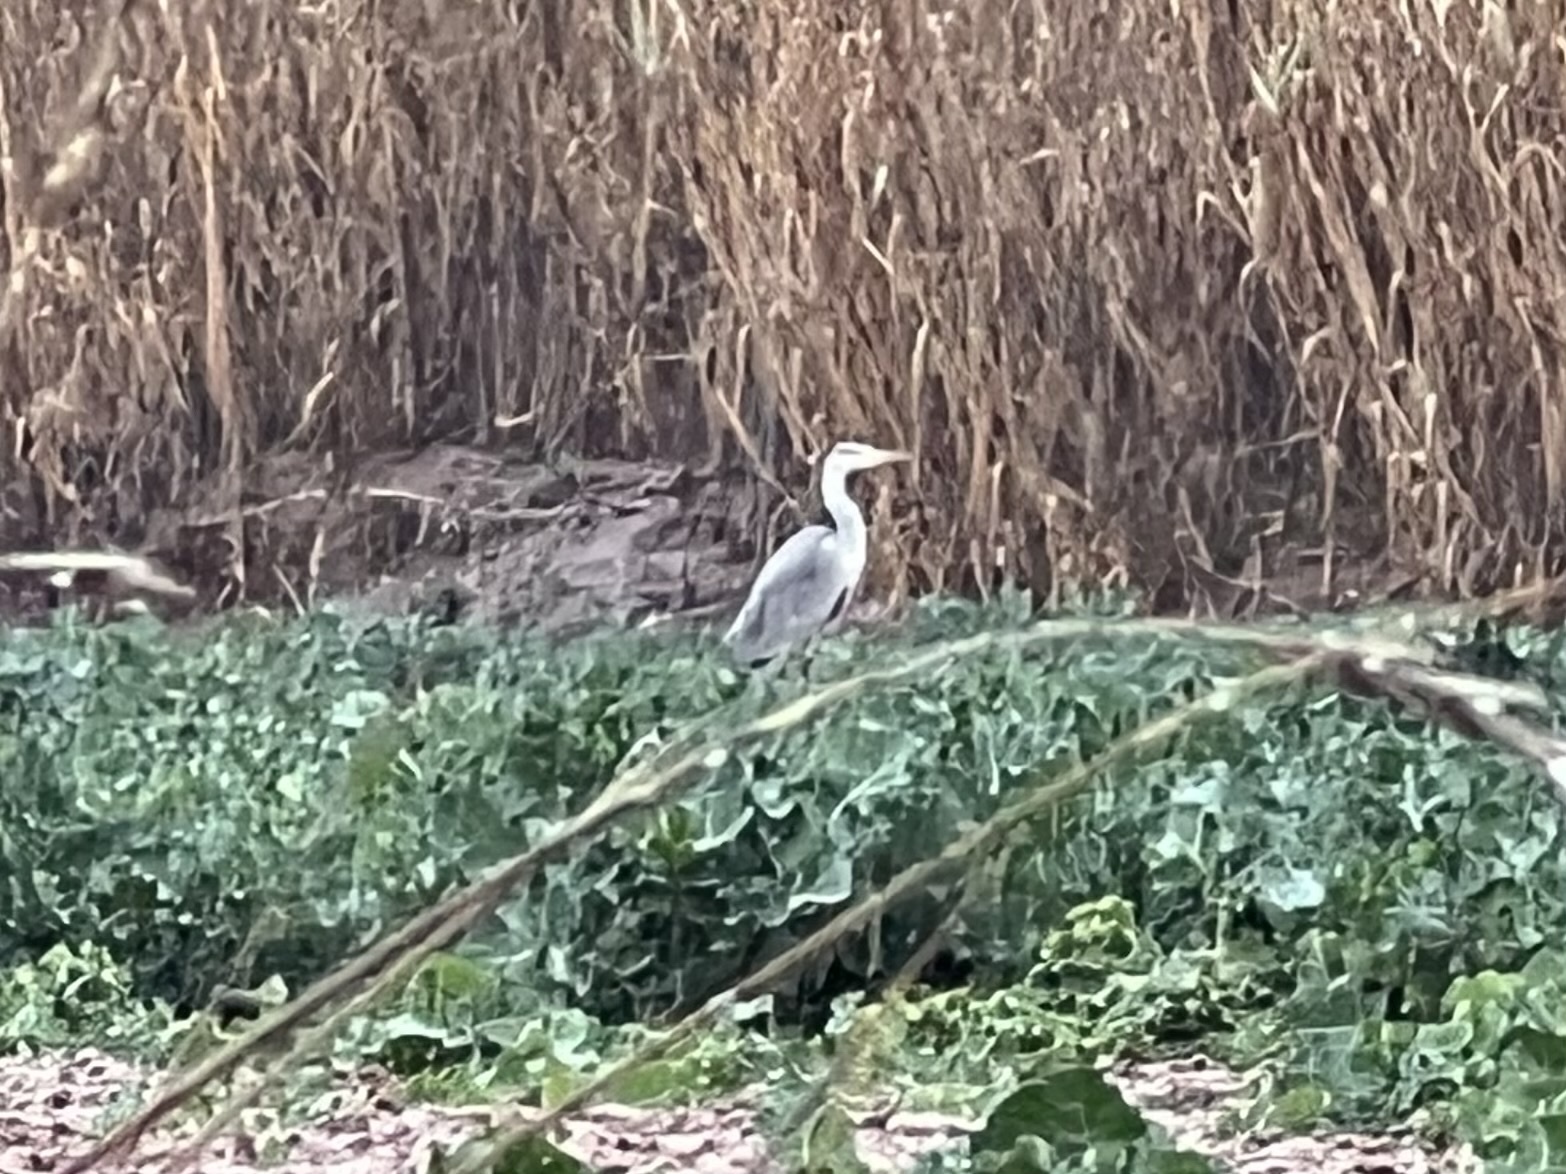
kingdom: Animalia
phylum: Chordata
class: Aves
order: Pelecaniformes
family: Ardeidae
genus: Ardea
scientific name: Ardea cinerea
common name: Grey heron
